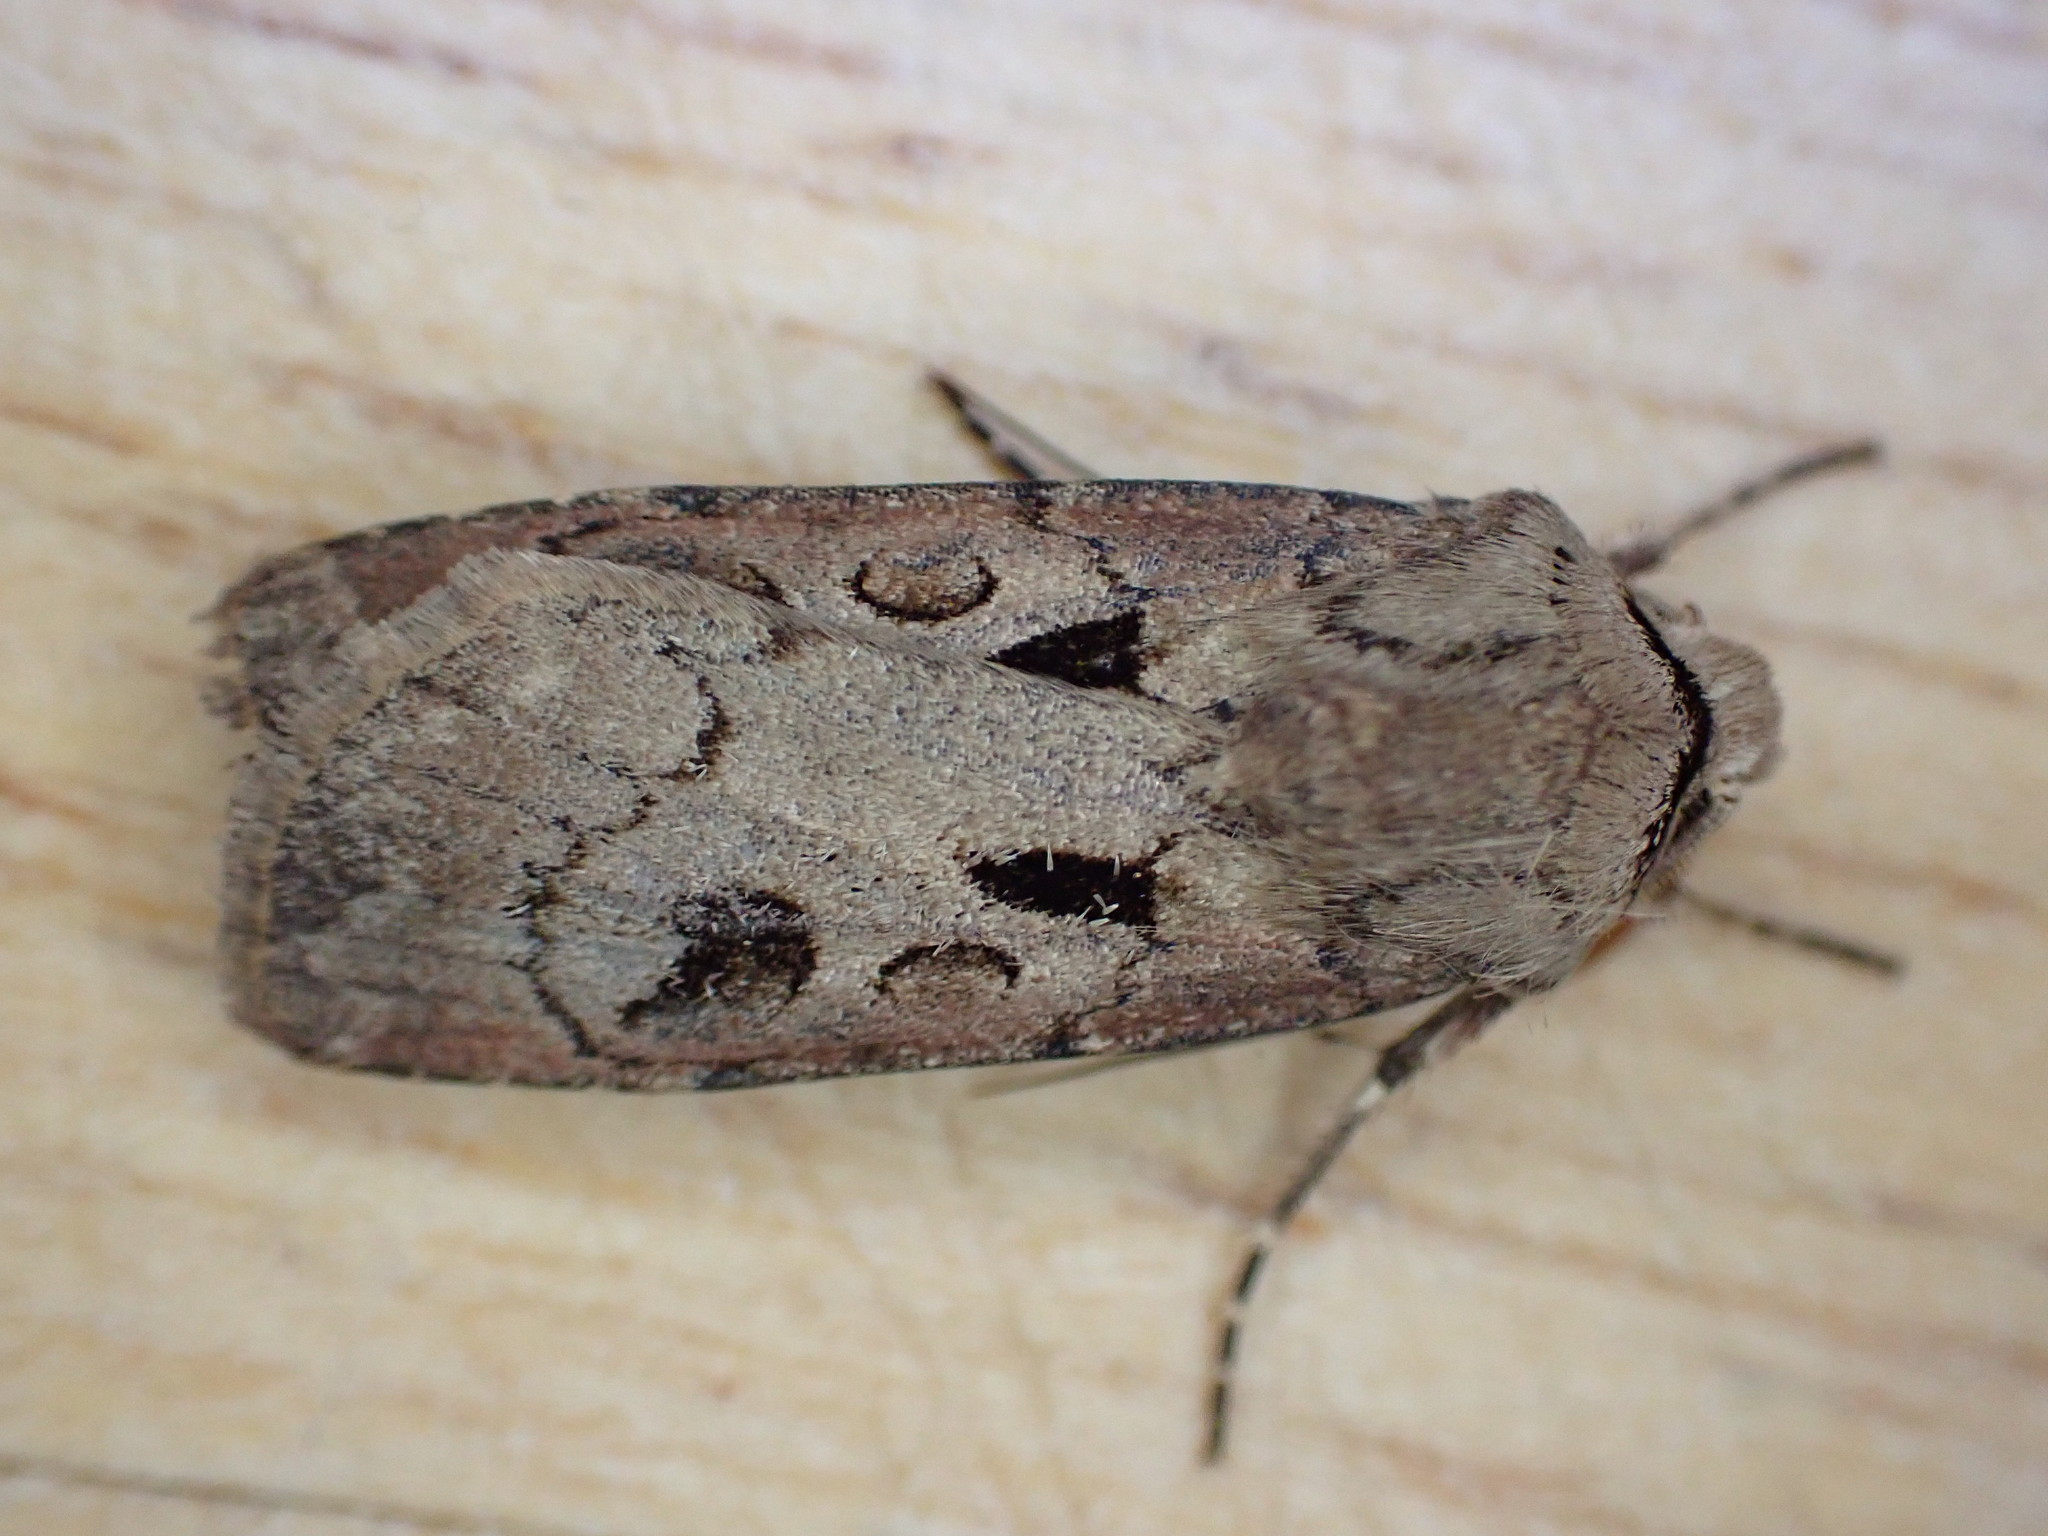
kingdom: Animalia
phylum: Arthropoda
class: Insecta
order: Lepidoptera
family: Noctuidae
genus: Agrotis
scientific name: Agrotis exclamationis
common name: Heart and dart
